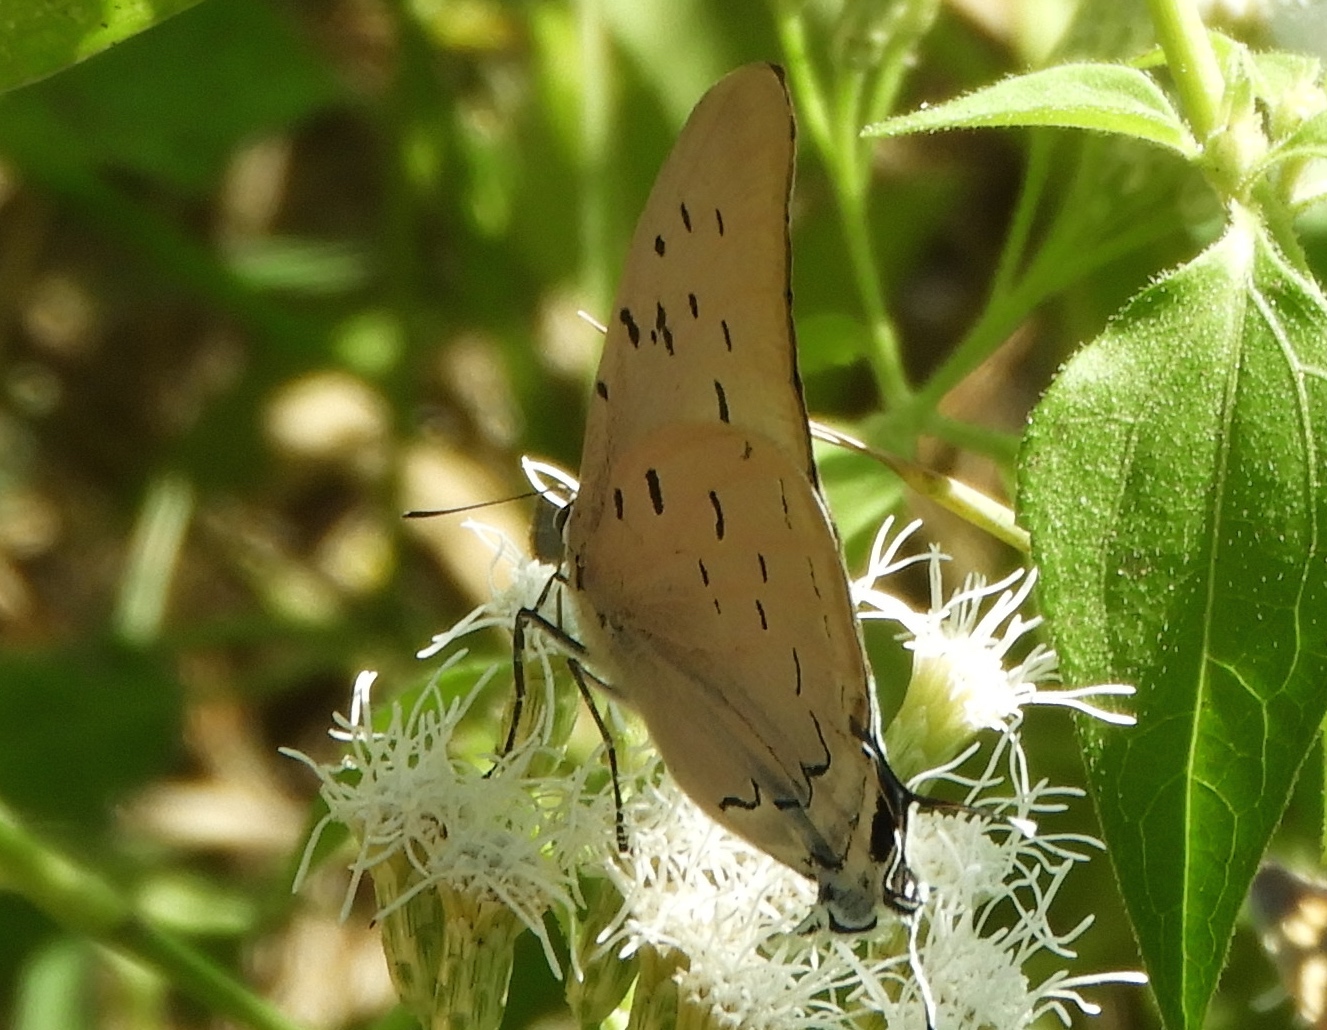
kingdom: Animalia
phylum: Arthropoda
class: Insecta
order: Lepidoptera
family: Lycaenidae
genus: Pseudolycaena
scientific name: Pseudolycaena damo
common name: Sky-blue hairstreak
